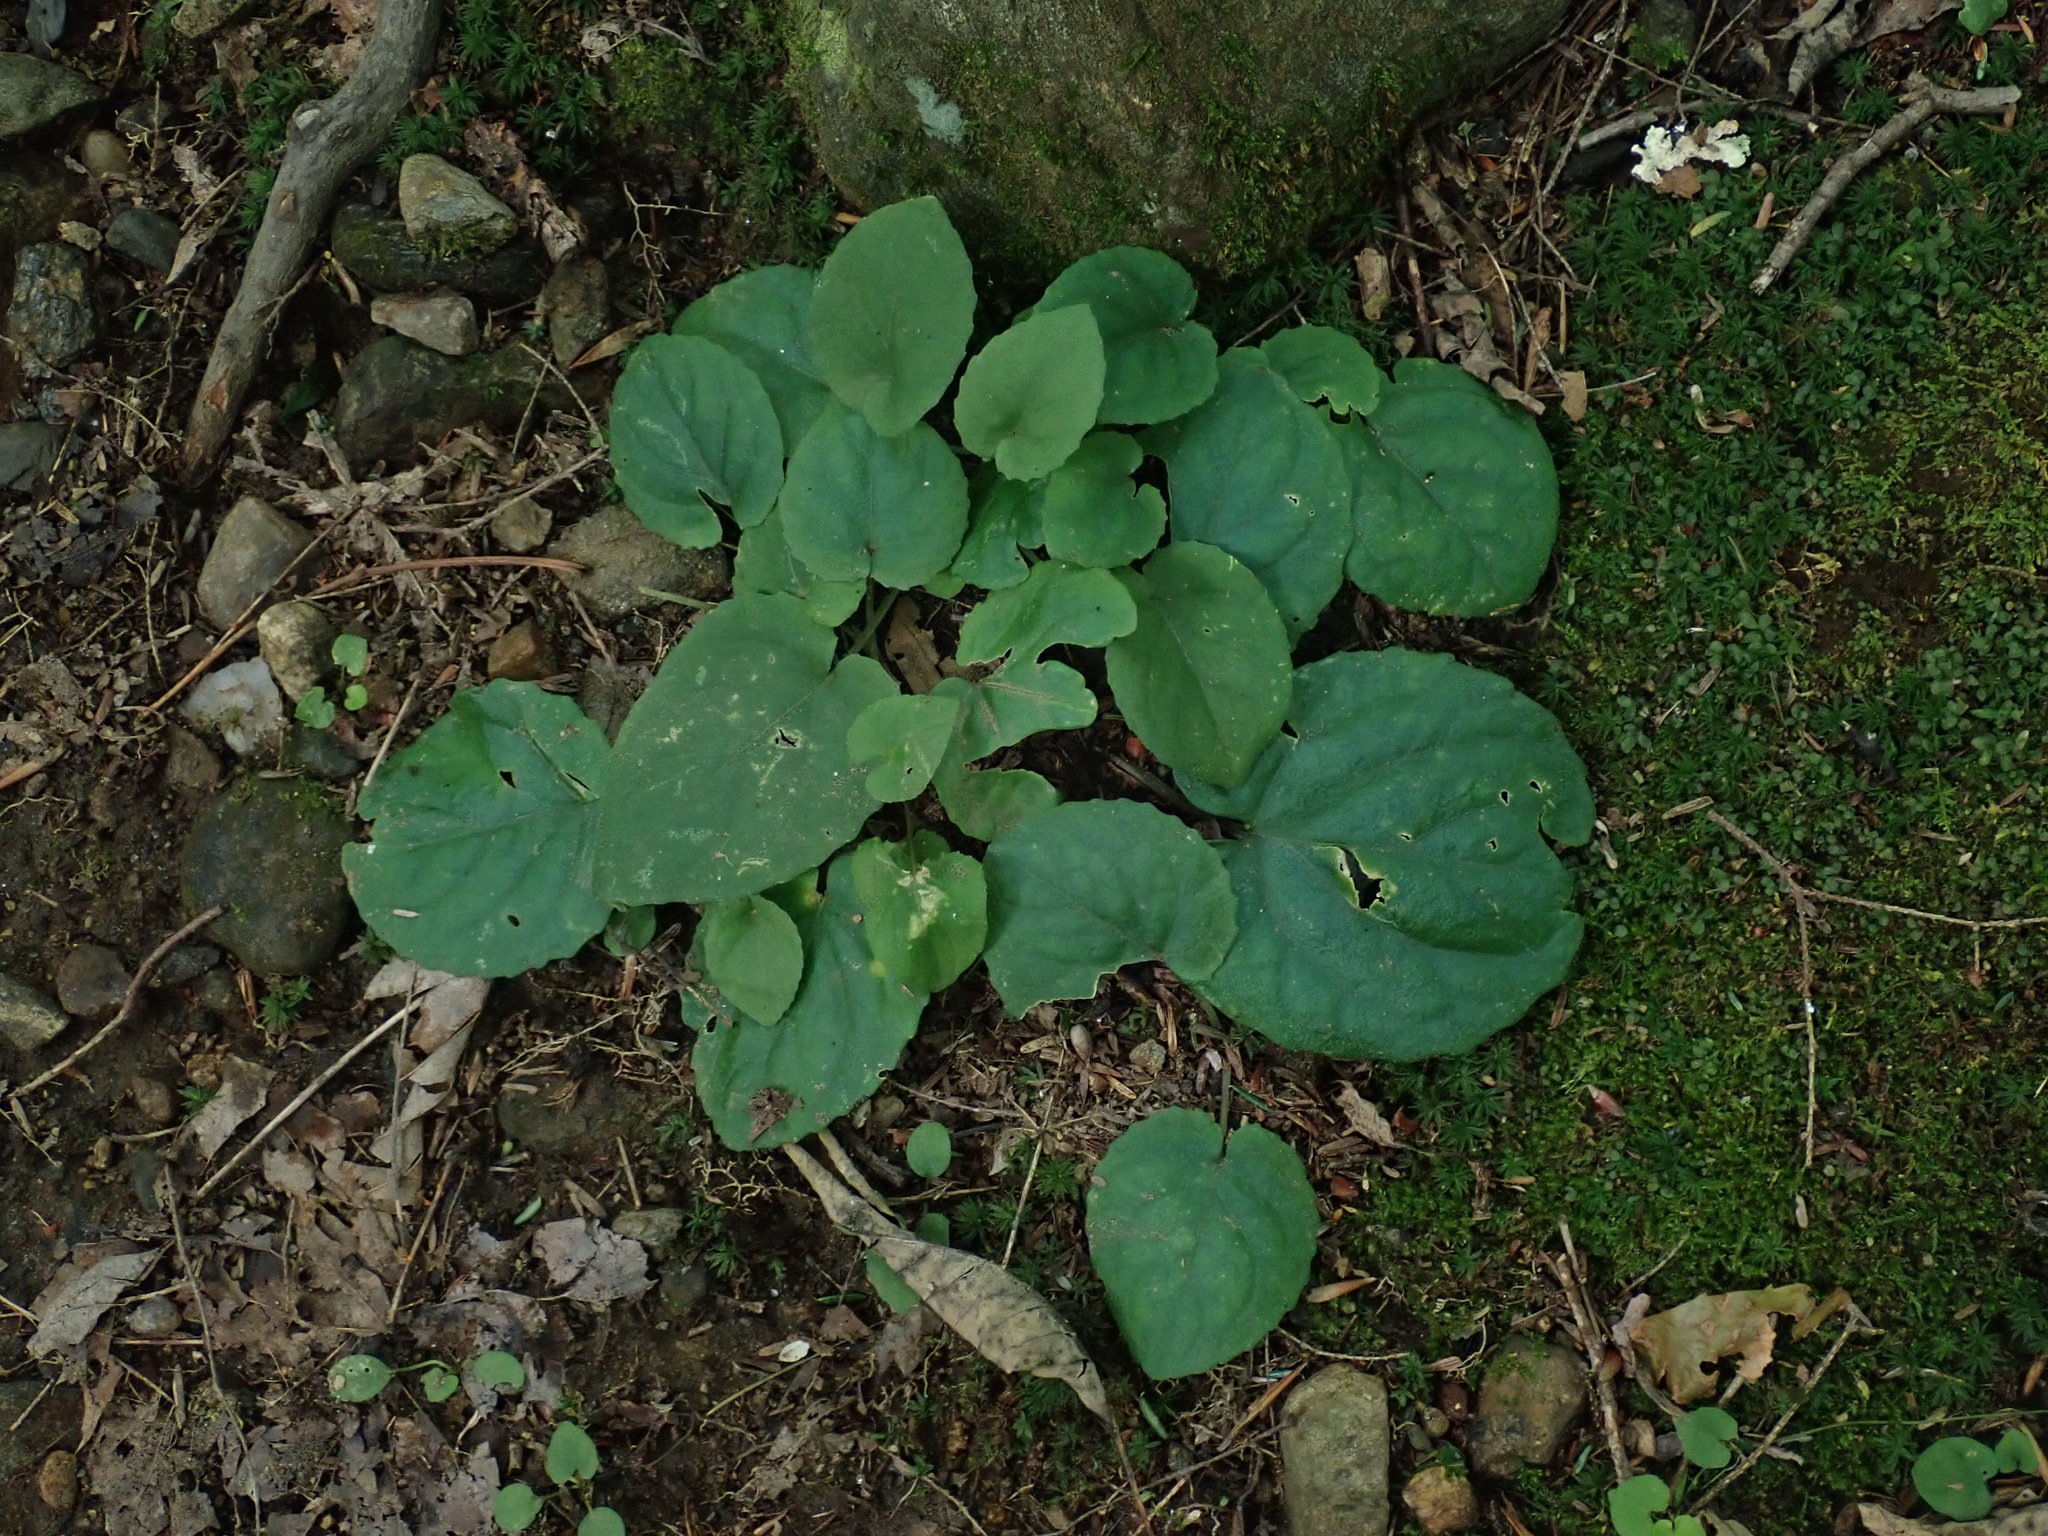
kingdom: Plantae
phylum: Tracheophyta
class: Magnoliopsida
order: Malpighiales
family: Violaceae
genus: Viola
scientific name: Viola rotundifolia
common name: Early yellow violet
